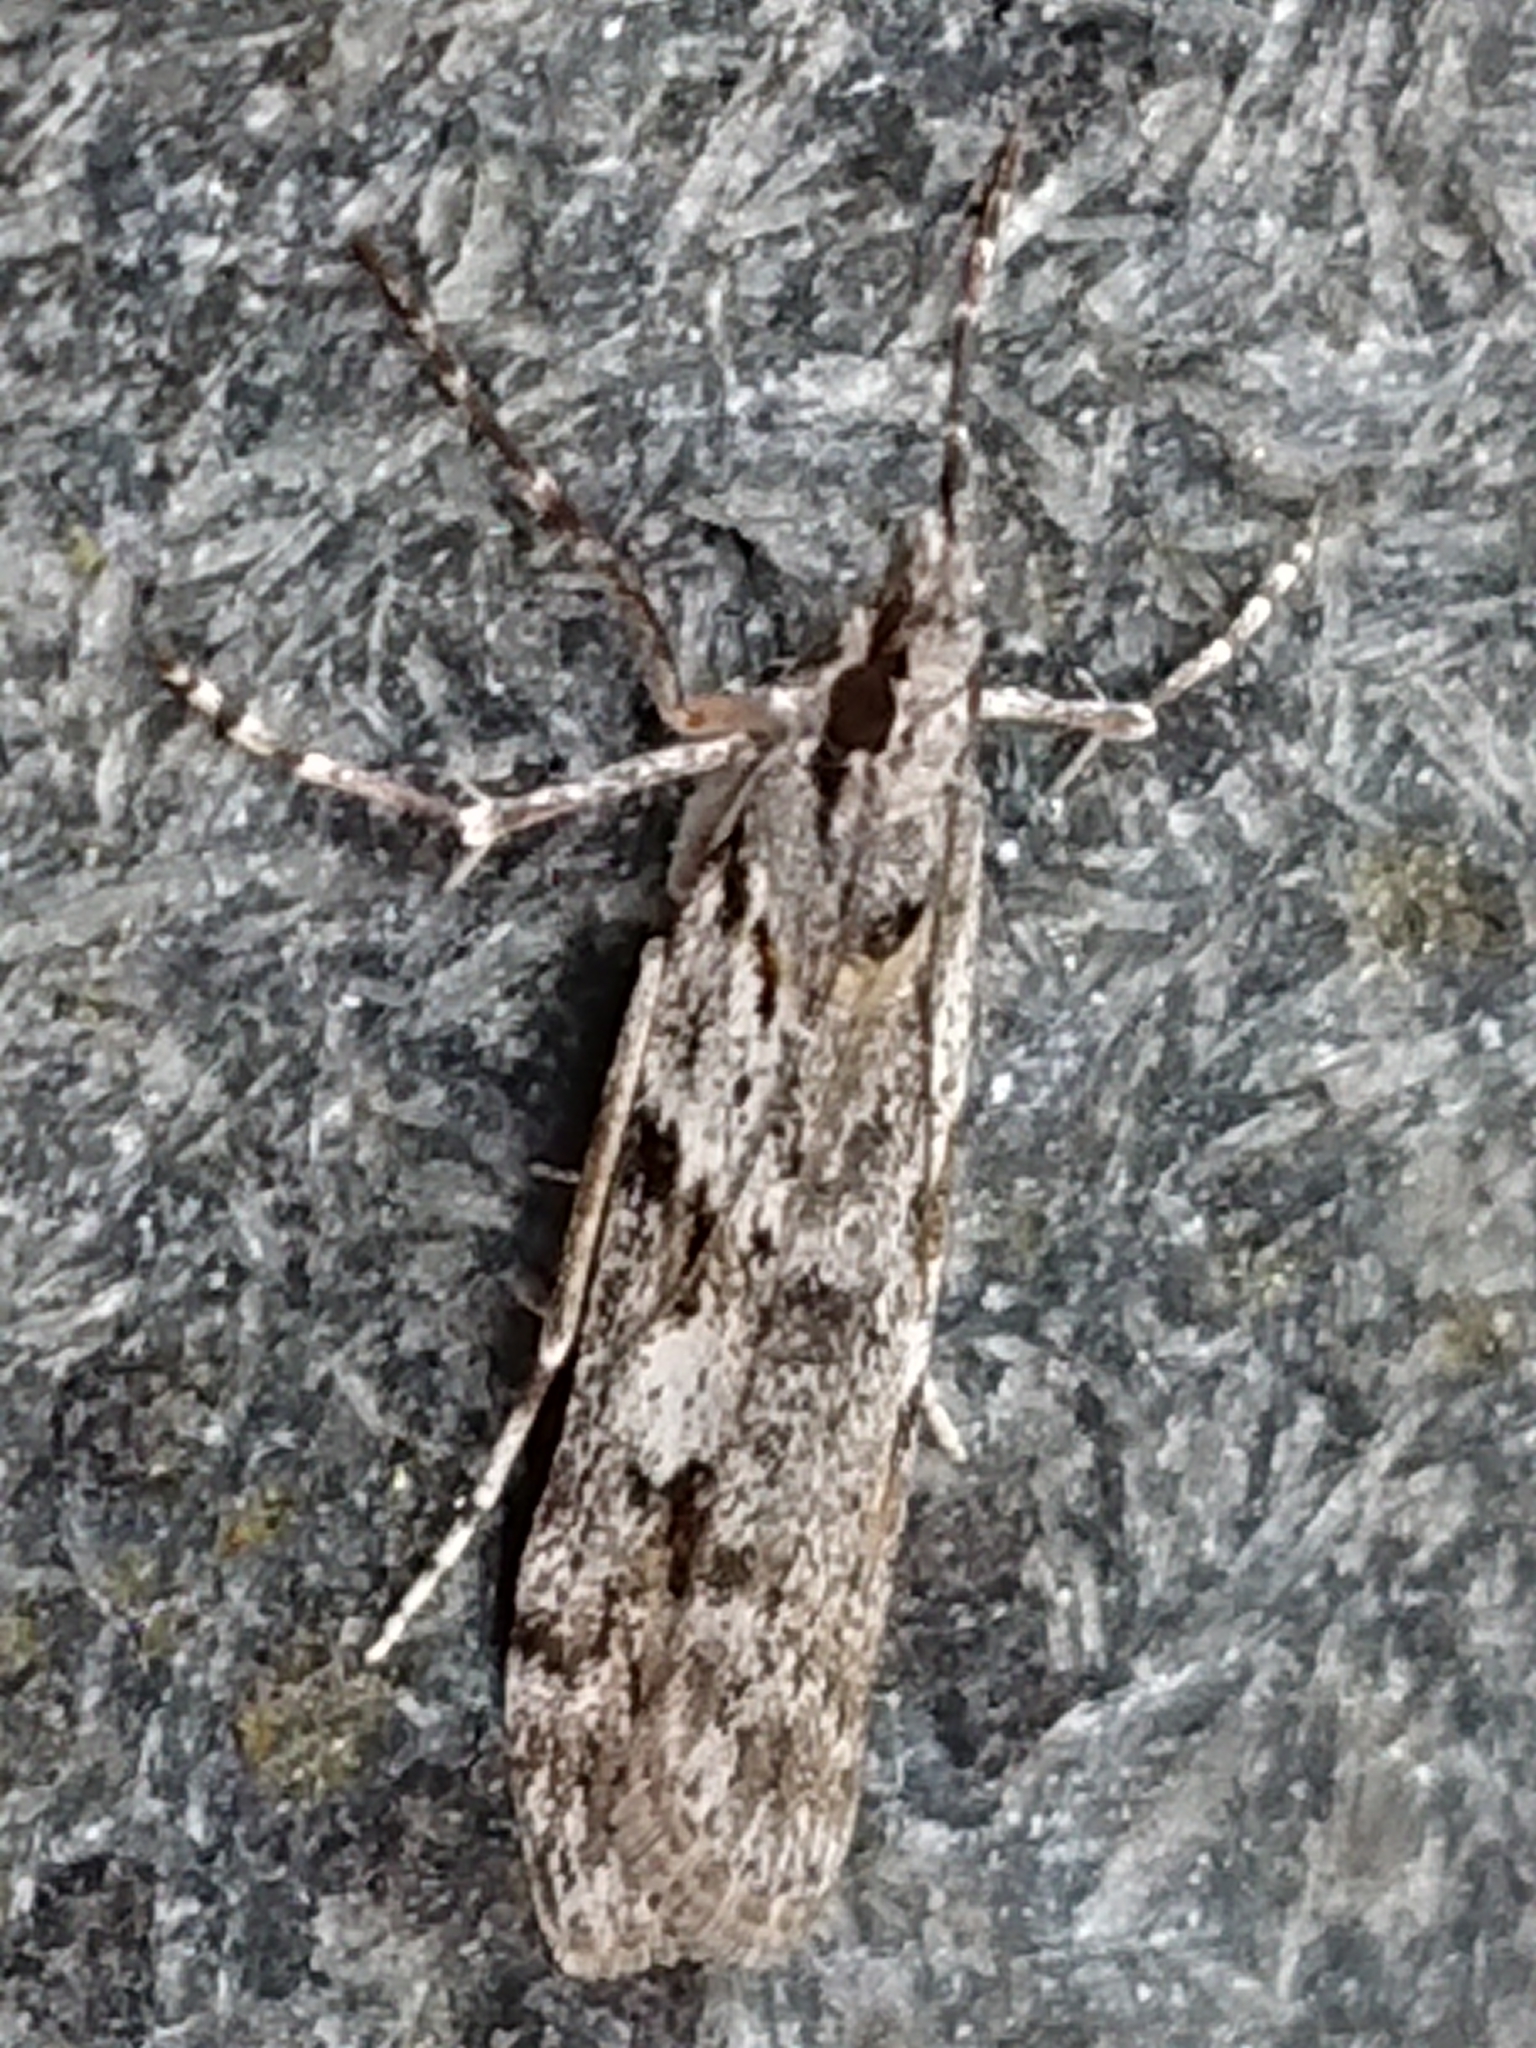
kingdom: Animalia
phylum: Arthropoda
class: Insecta
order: Lepidoptera
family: Crambidae
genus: Scoparia
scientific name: Scoparia halopis
